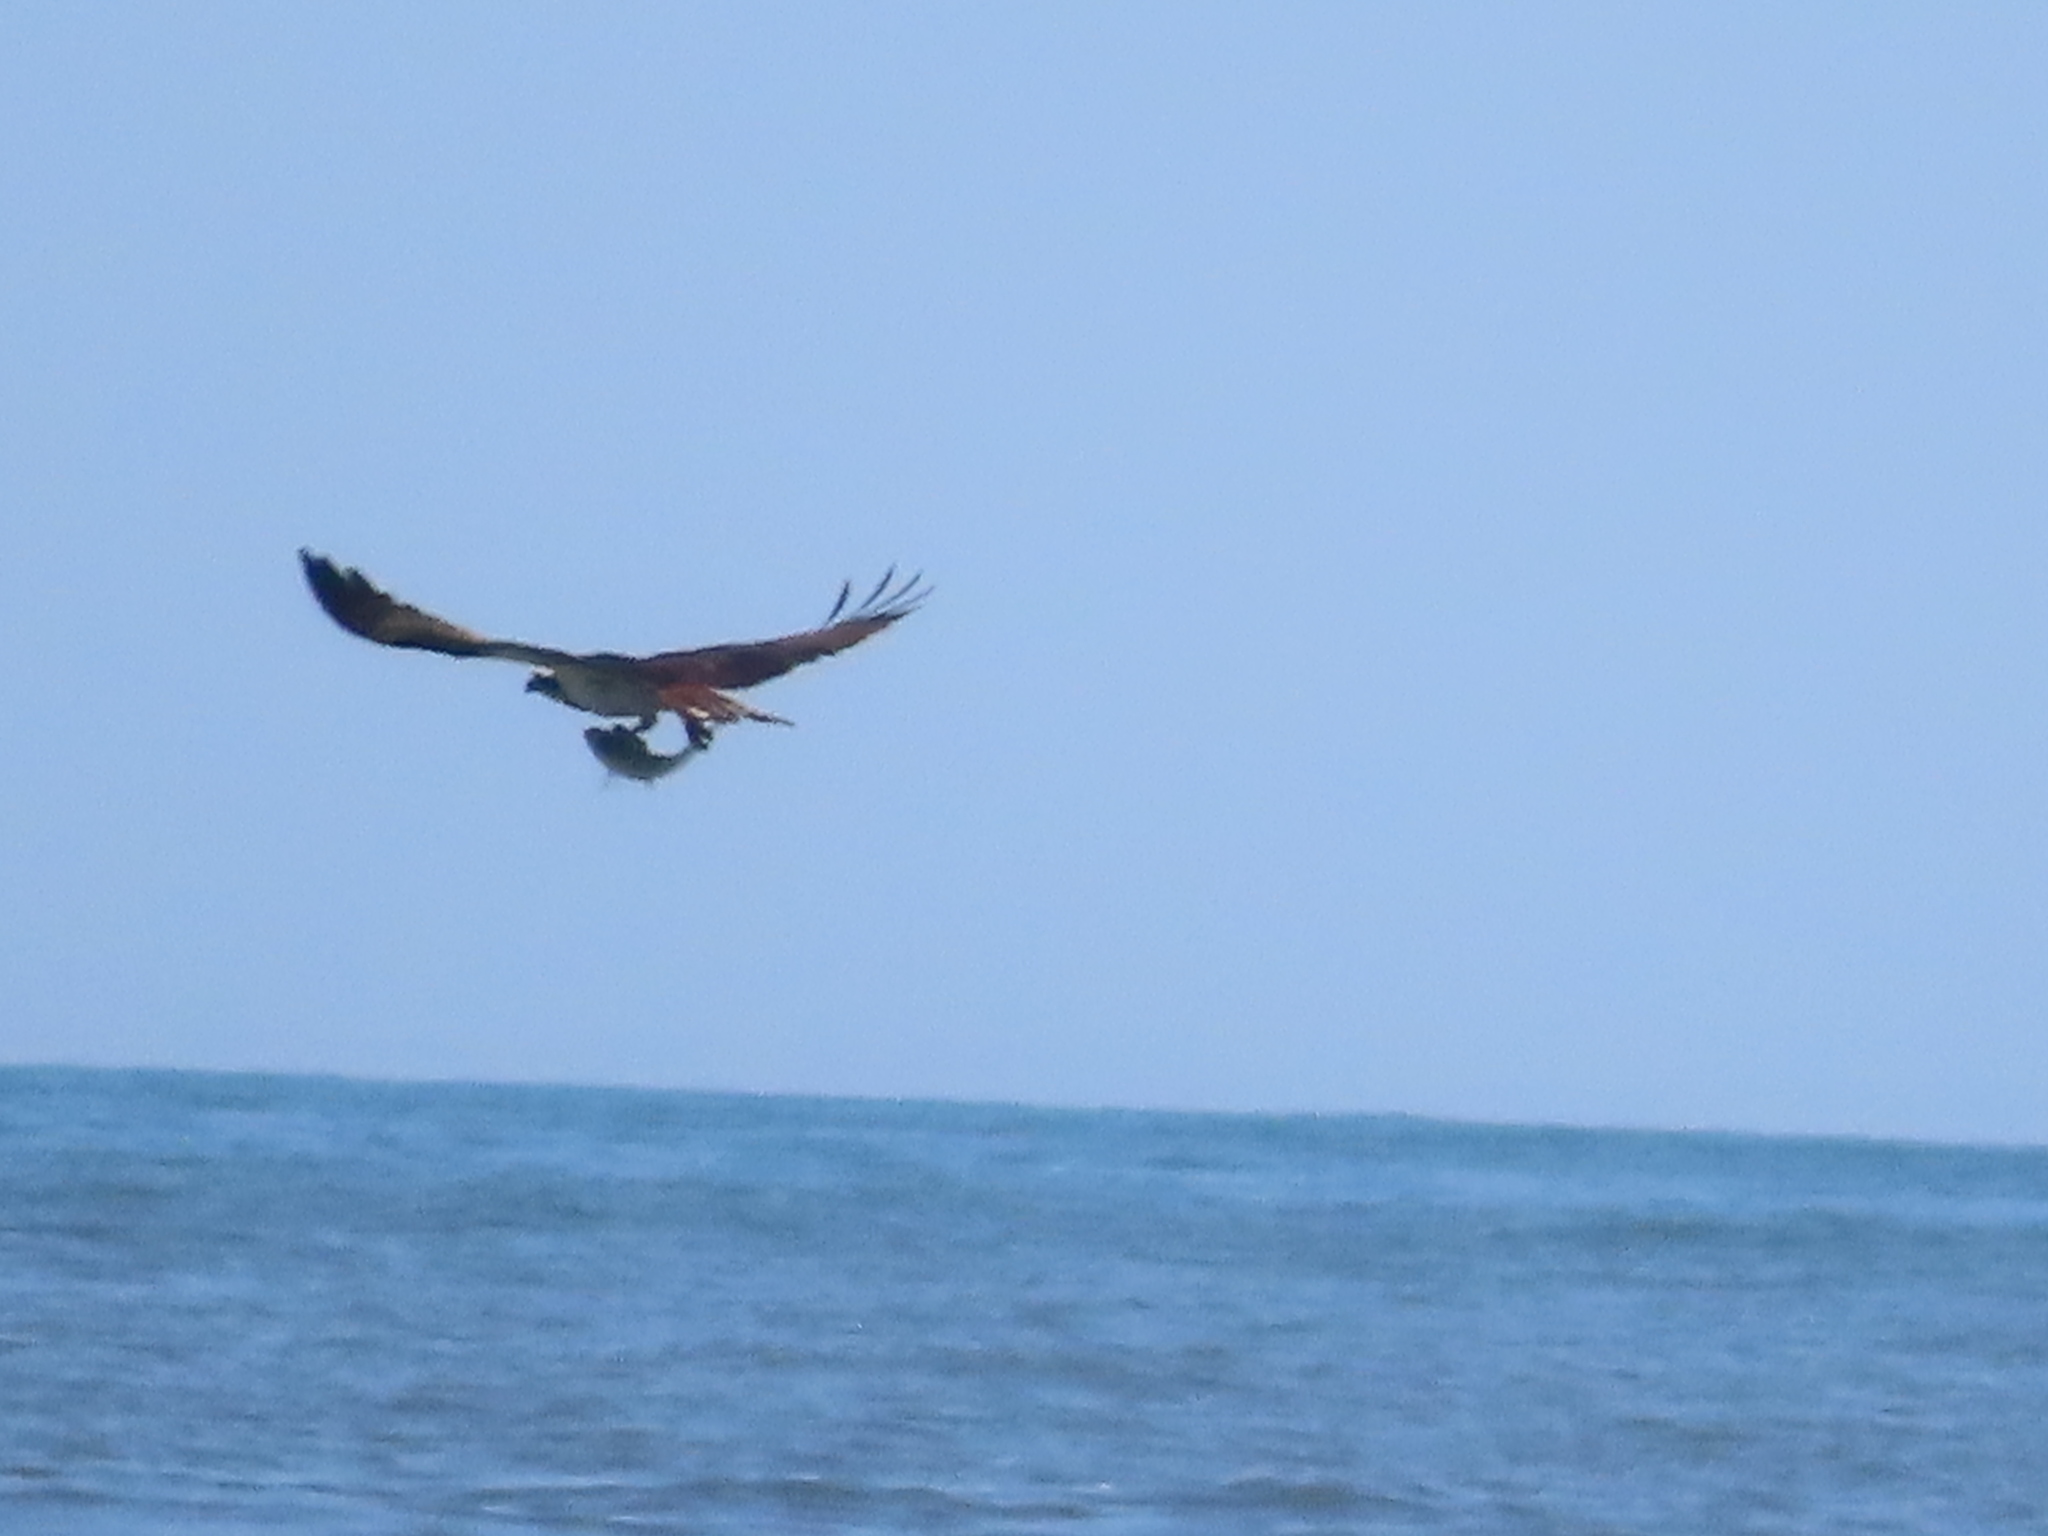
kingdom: Animalia
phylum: Chordata
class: Aves
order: Accipitriformes
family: Pandionidae
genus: Pandion
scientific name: Pandion haliaetus
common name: Osprey
